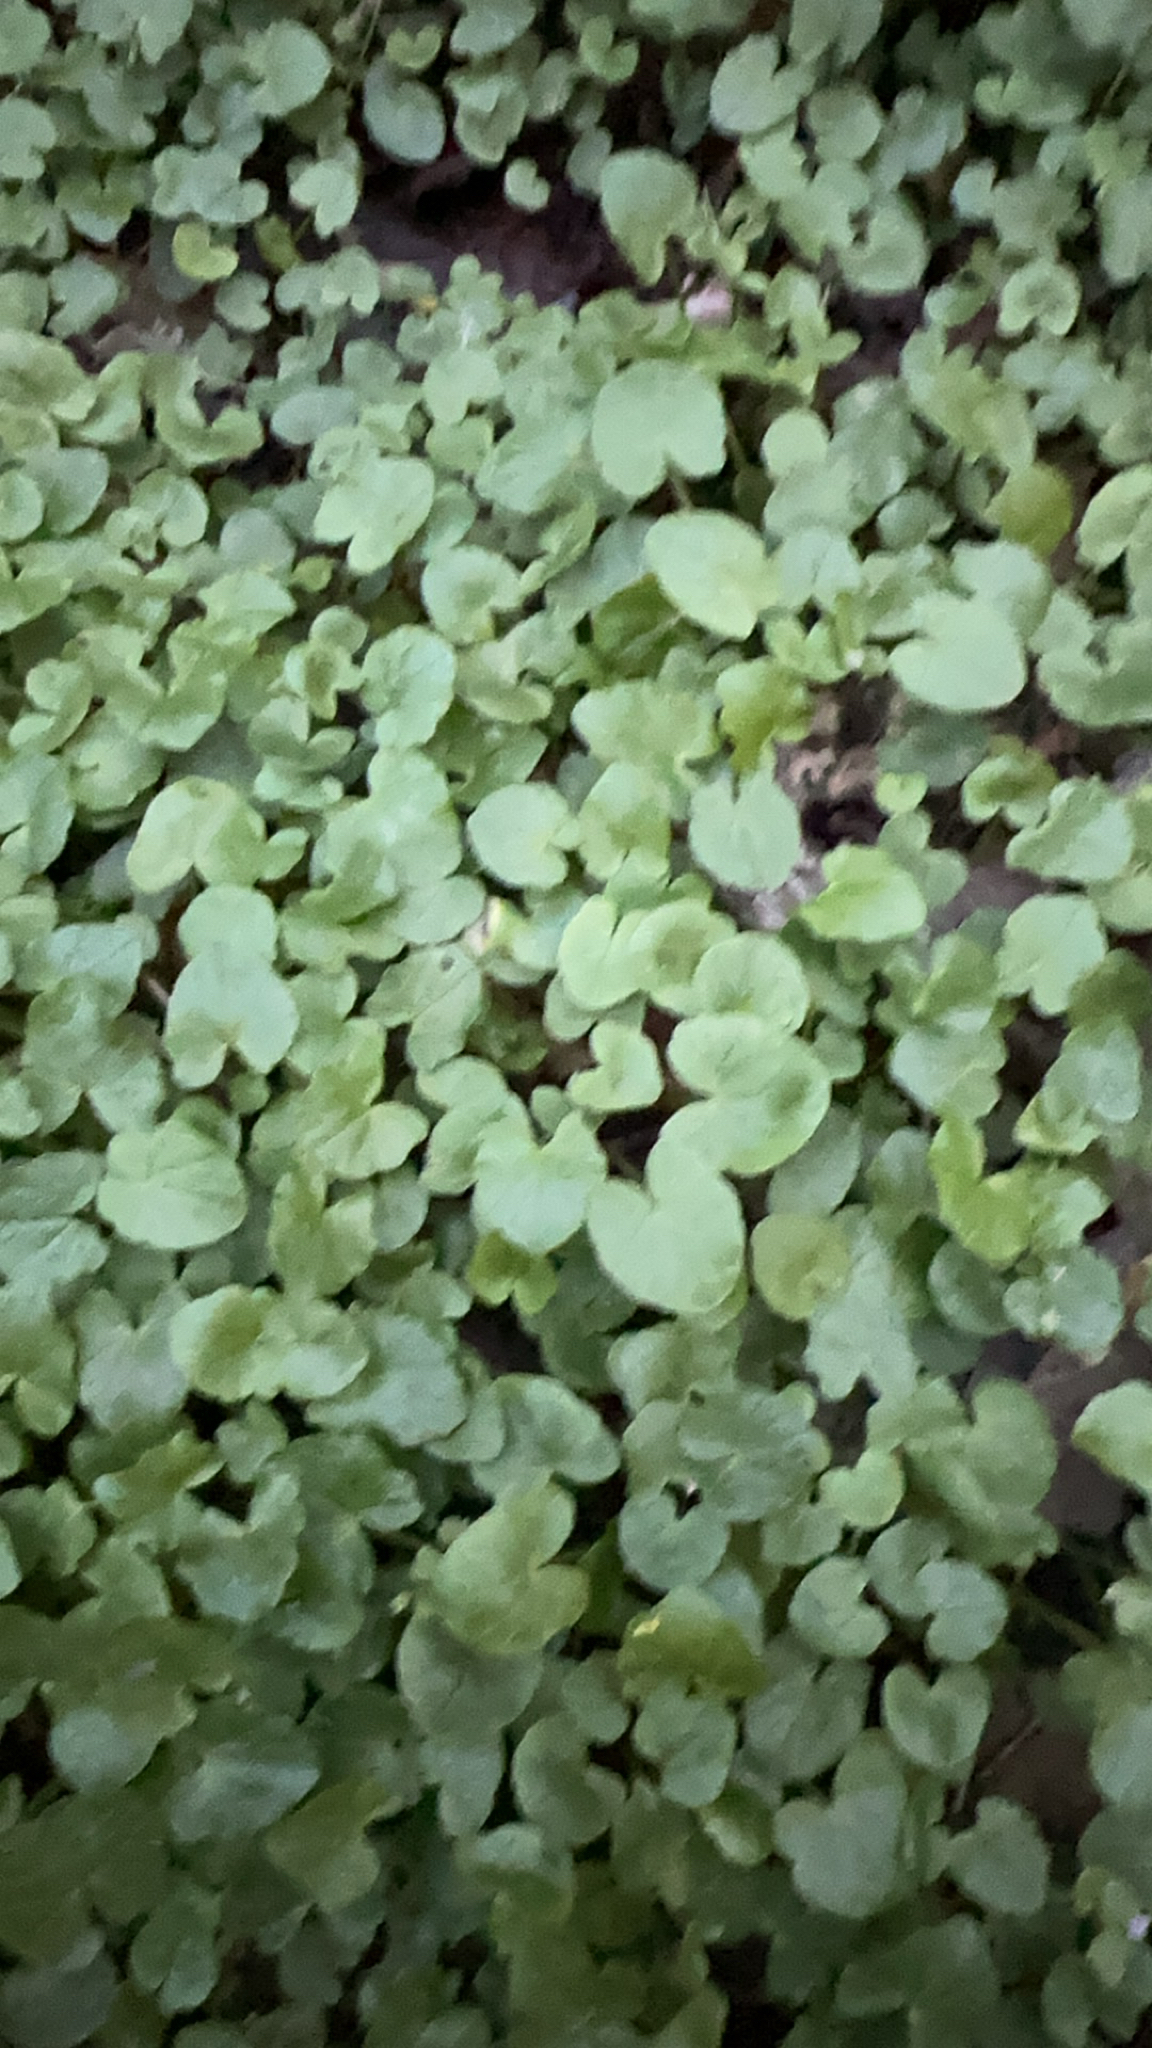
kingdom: Plantae
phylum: Tracheophyta
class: Magnoliopsida
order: Ranunculales
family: Ranunculaceae
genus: Ficaria
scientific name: Ficaria verna
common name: Lesser celandine
